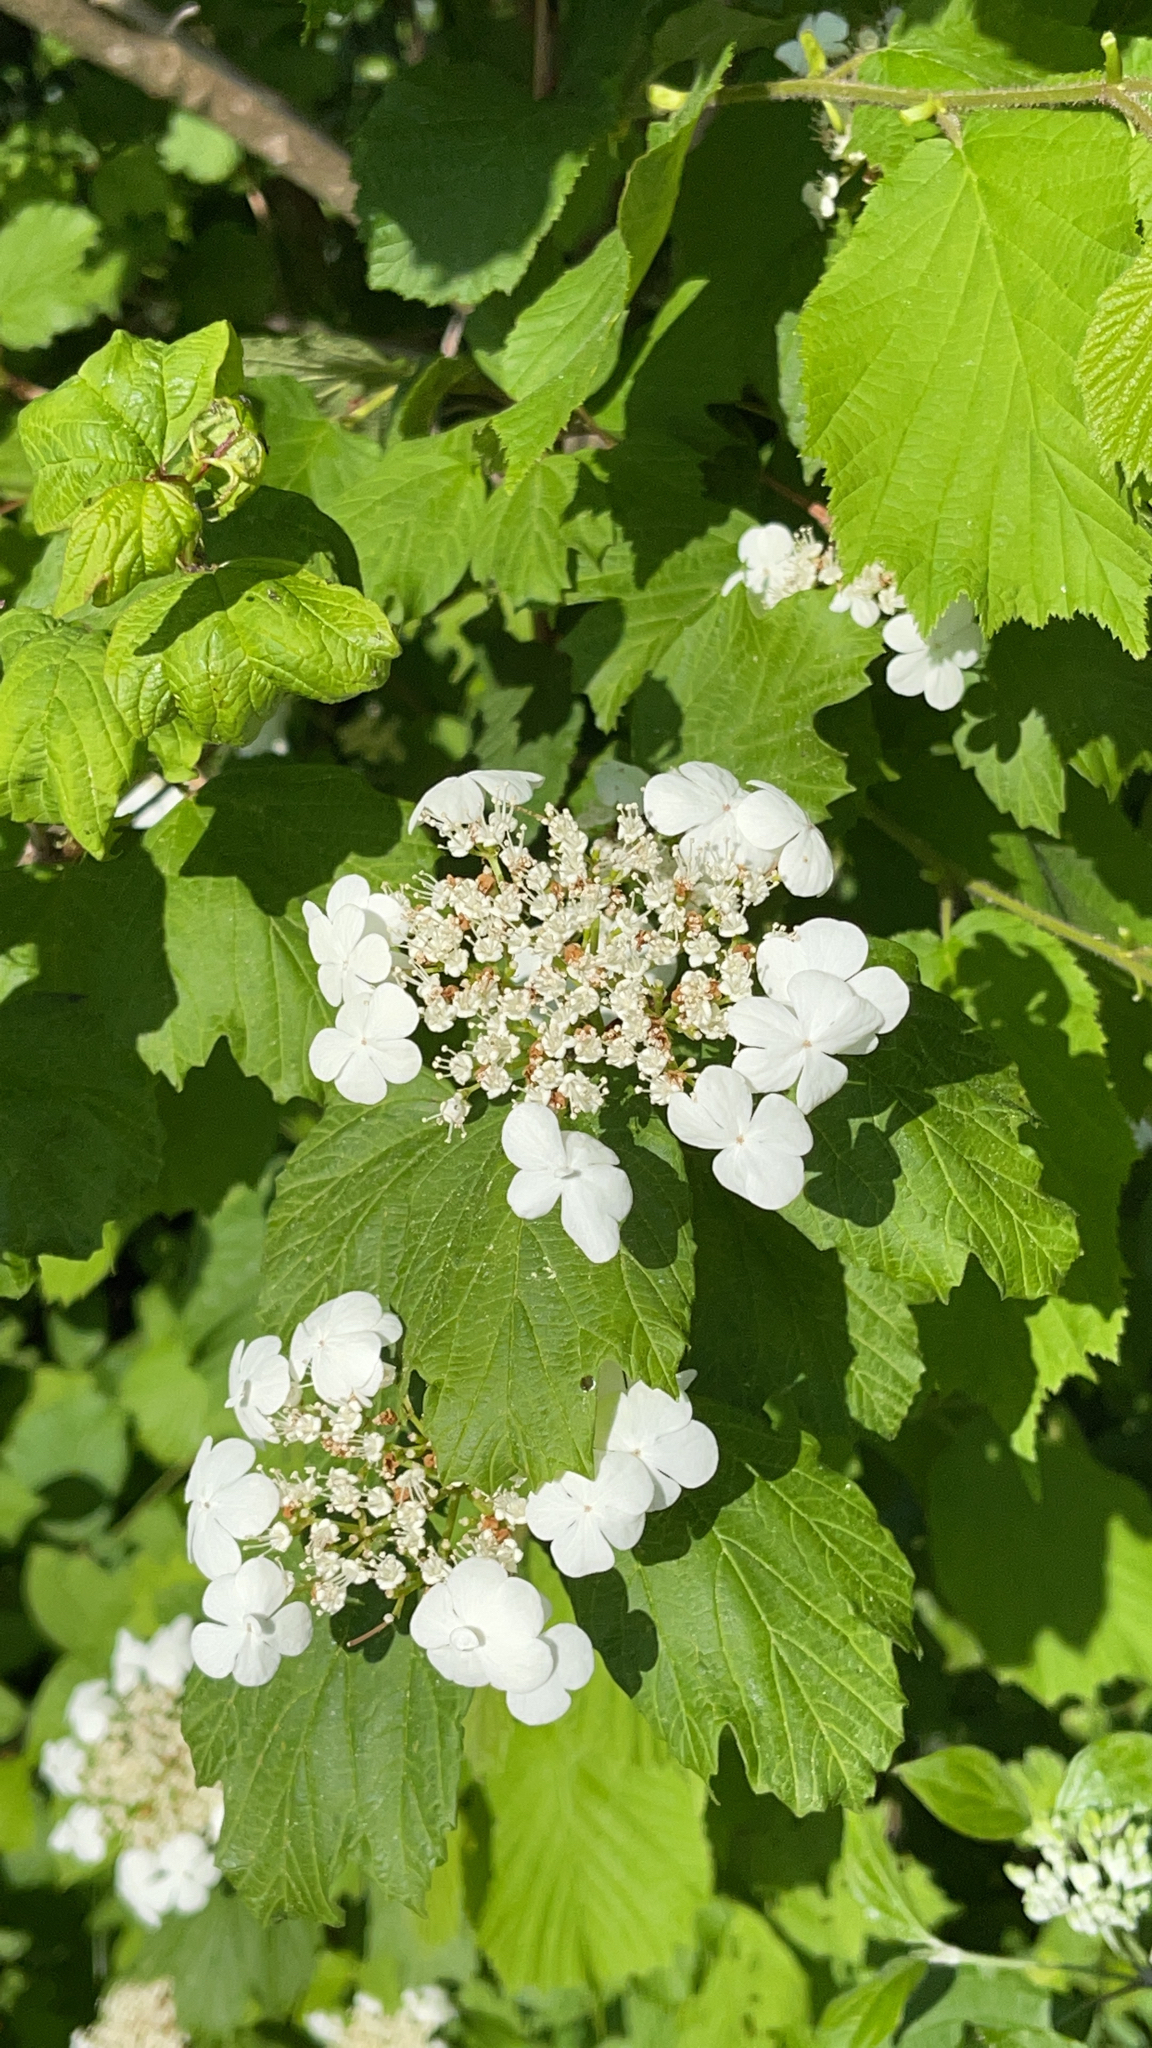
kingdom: Plantae
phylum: Tracheophyta
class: Magnoliopsida
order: Dipsacales
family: Viburnaceae
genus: Viburnum
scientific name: Viburnum opulus
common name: Guelder-rose
